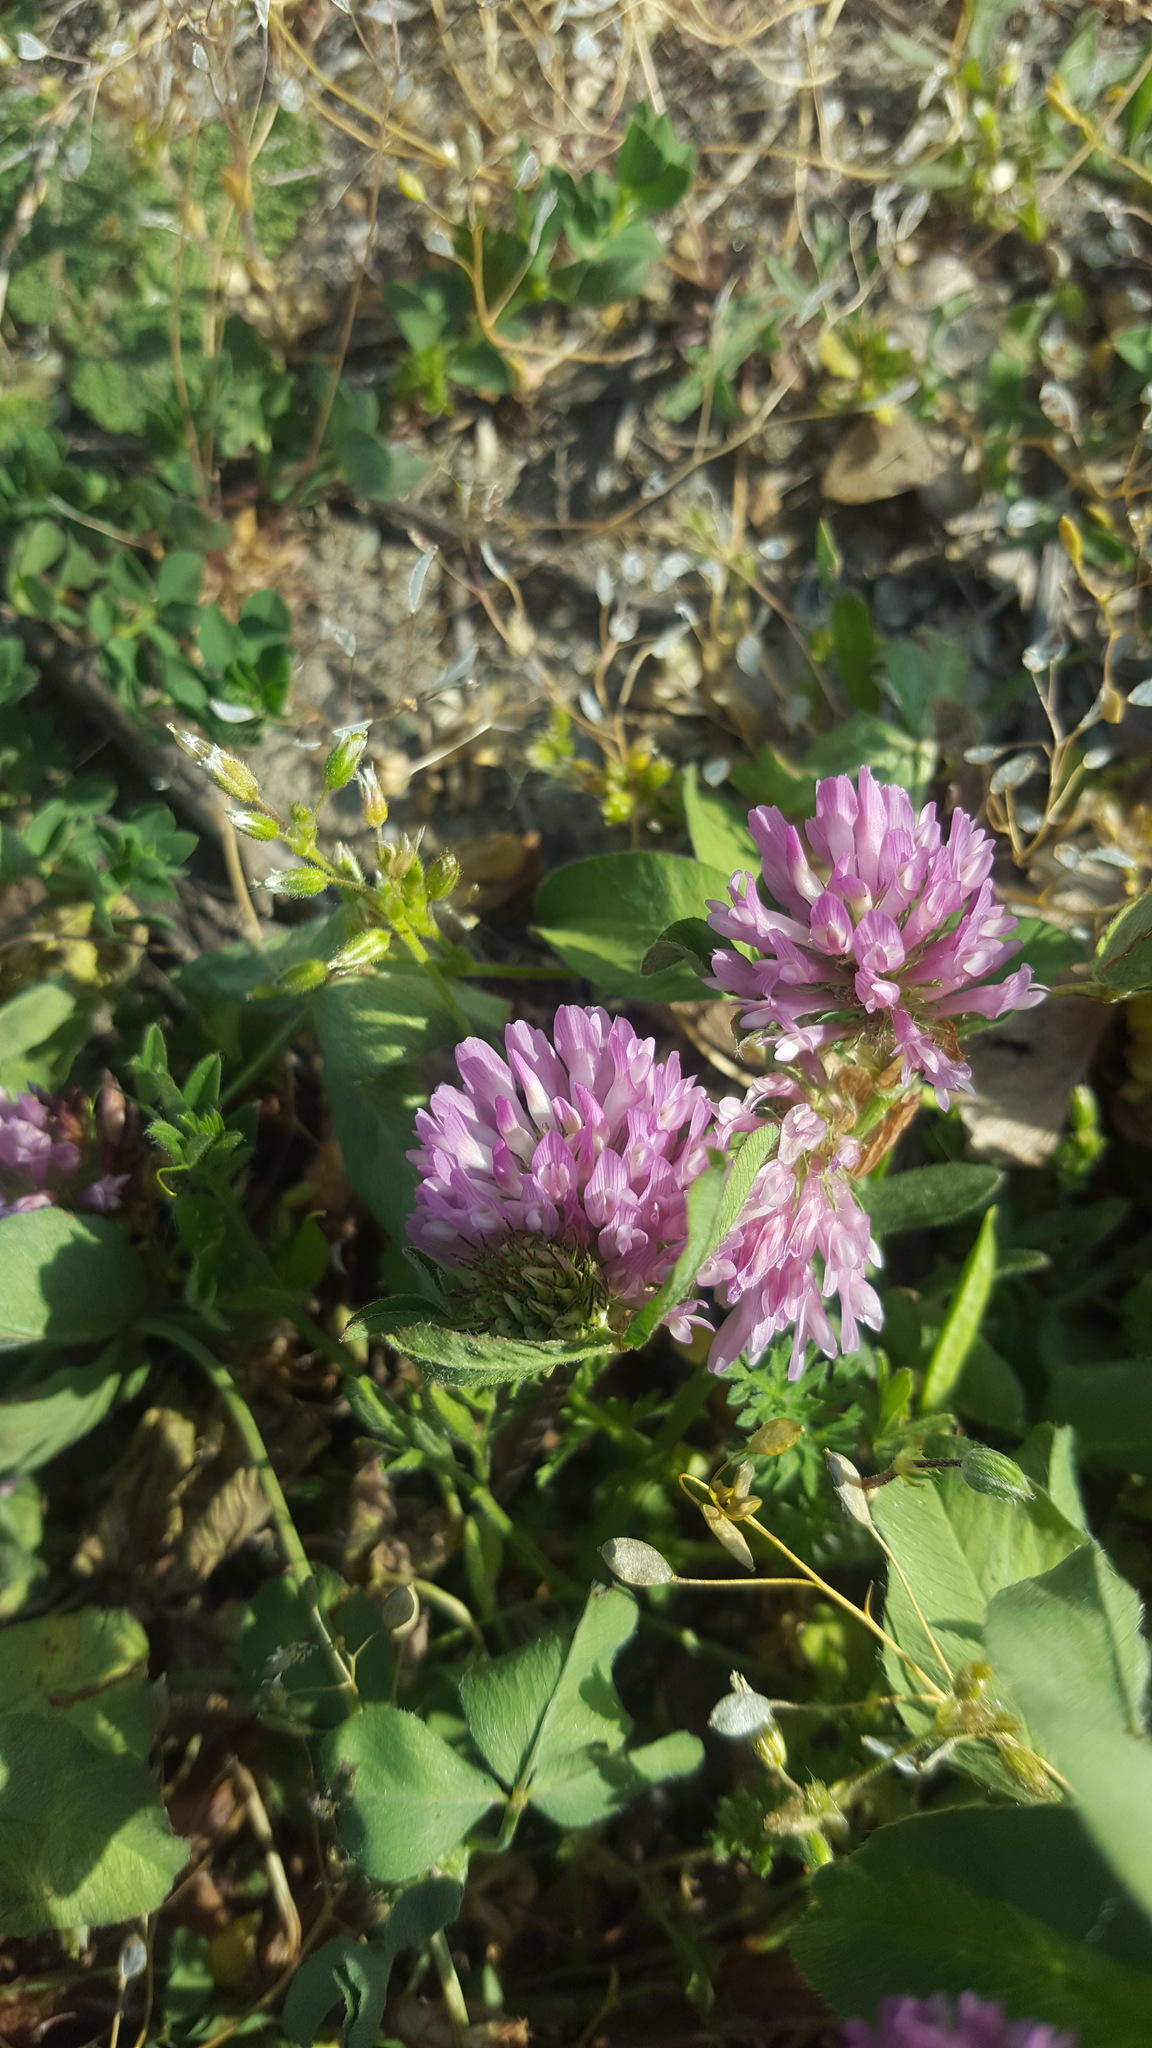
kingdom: Plantae
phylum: Tracheophyta
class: Magnoliopsida
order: Fabales
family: Fabaceae
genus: Trifolium
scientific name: Trifolium pratense
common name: Red clover
